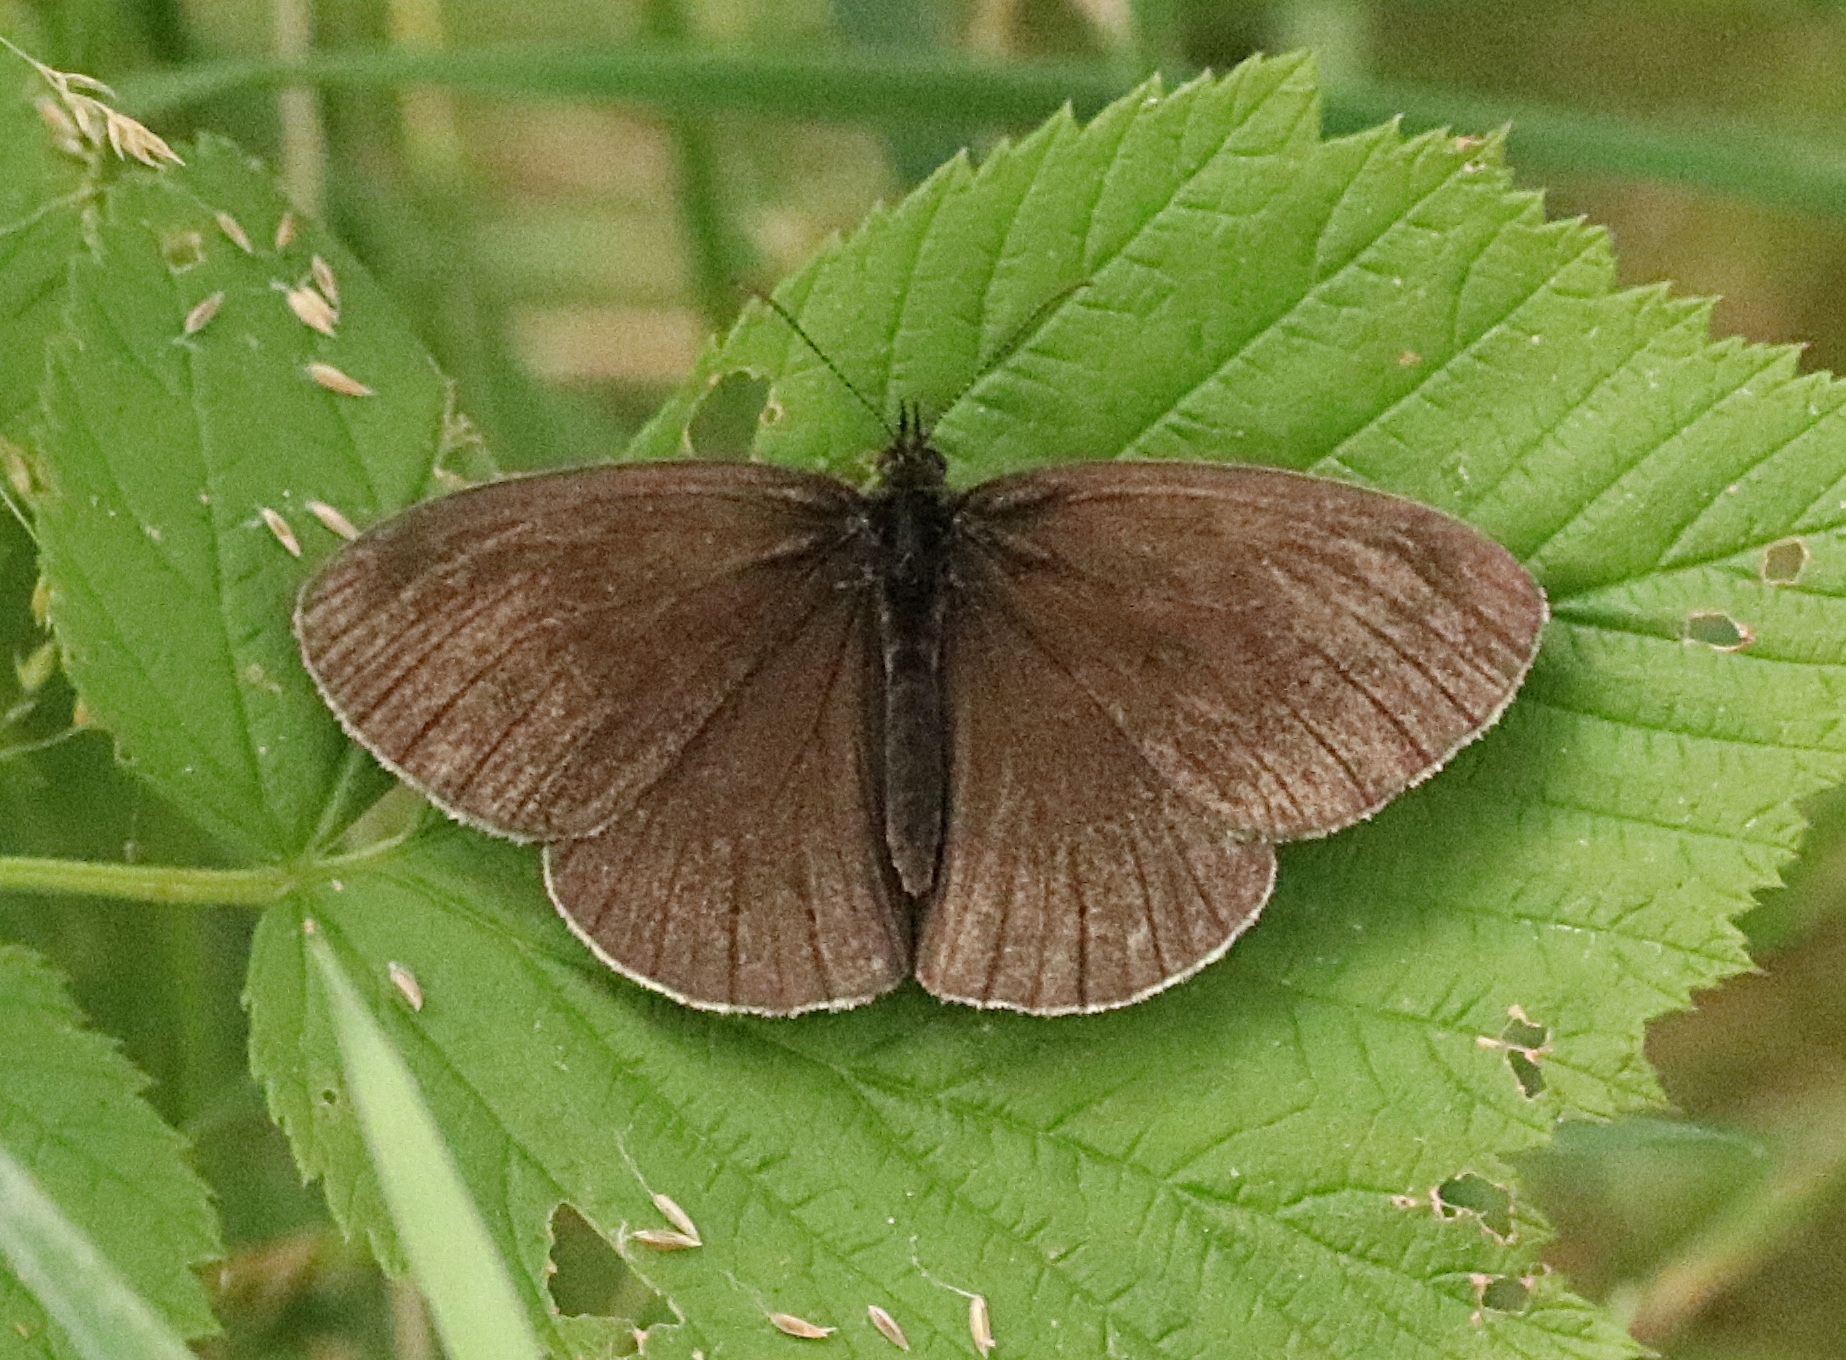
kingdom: Animalia
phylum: Arthropoda
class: Insecta
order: Lepidoptera
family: Nymphalidae
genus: Aphantopus
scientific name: Aphantopus hyperantus
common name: Ringlet
